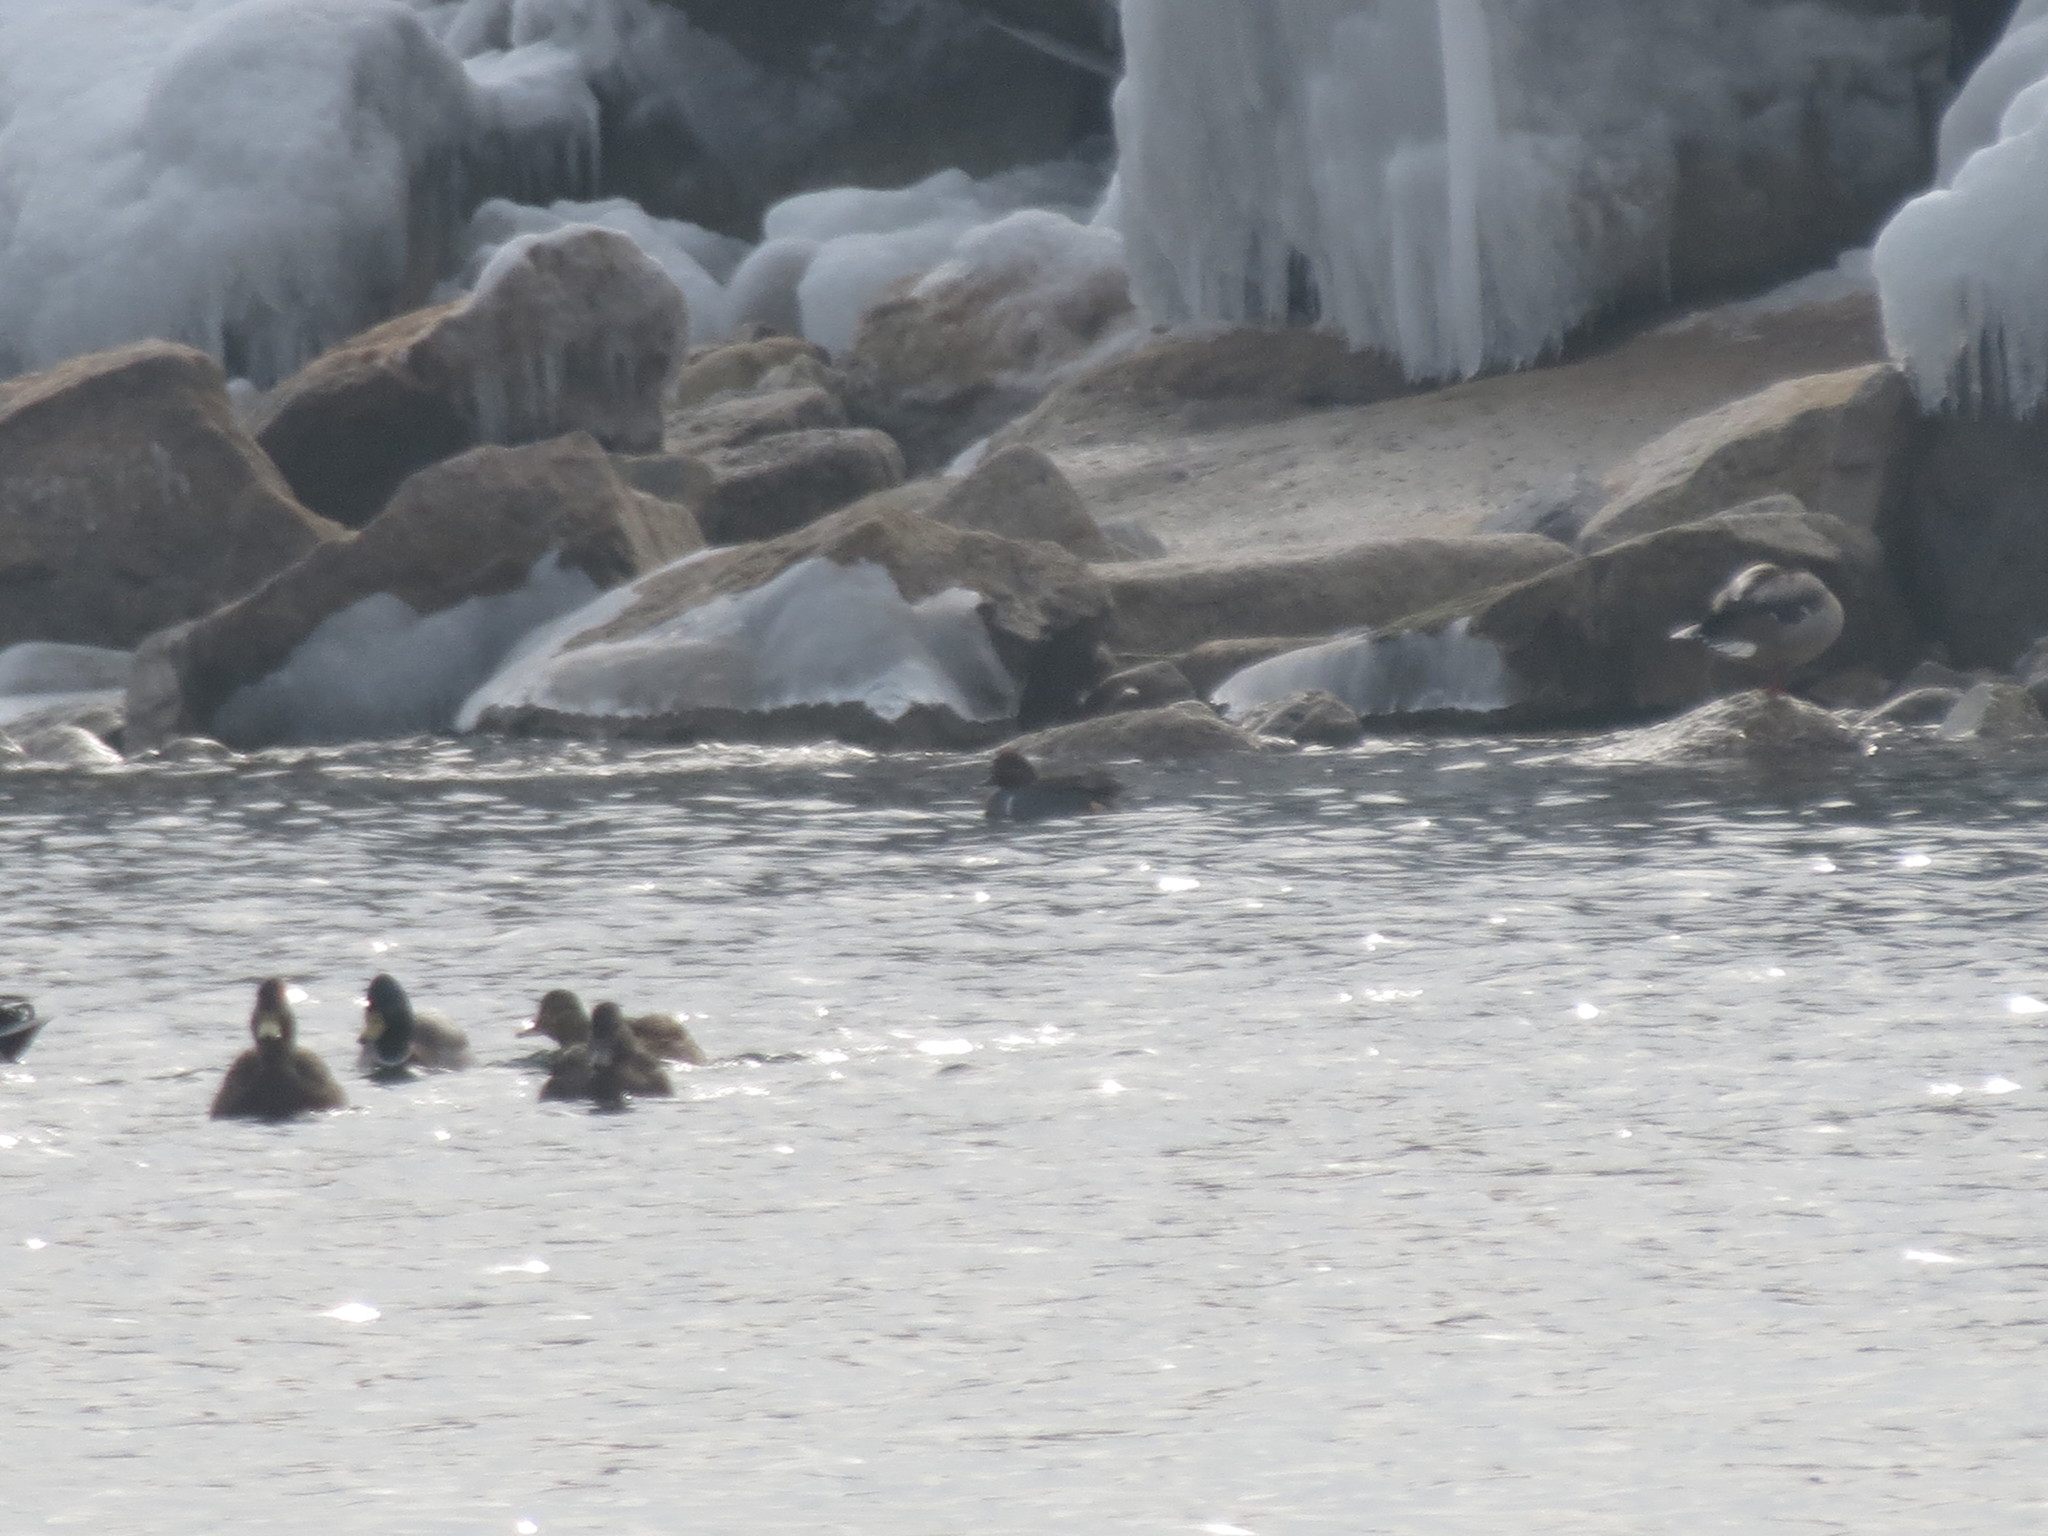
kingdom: Animalia
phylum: Chordata
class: Aves
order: Anseriformes
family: Anatidae
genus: Anas
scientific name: Anas crecca
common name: Eurasian teal
